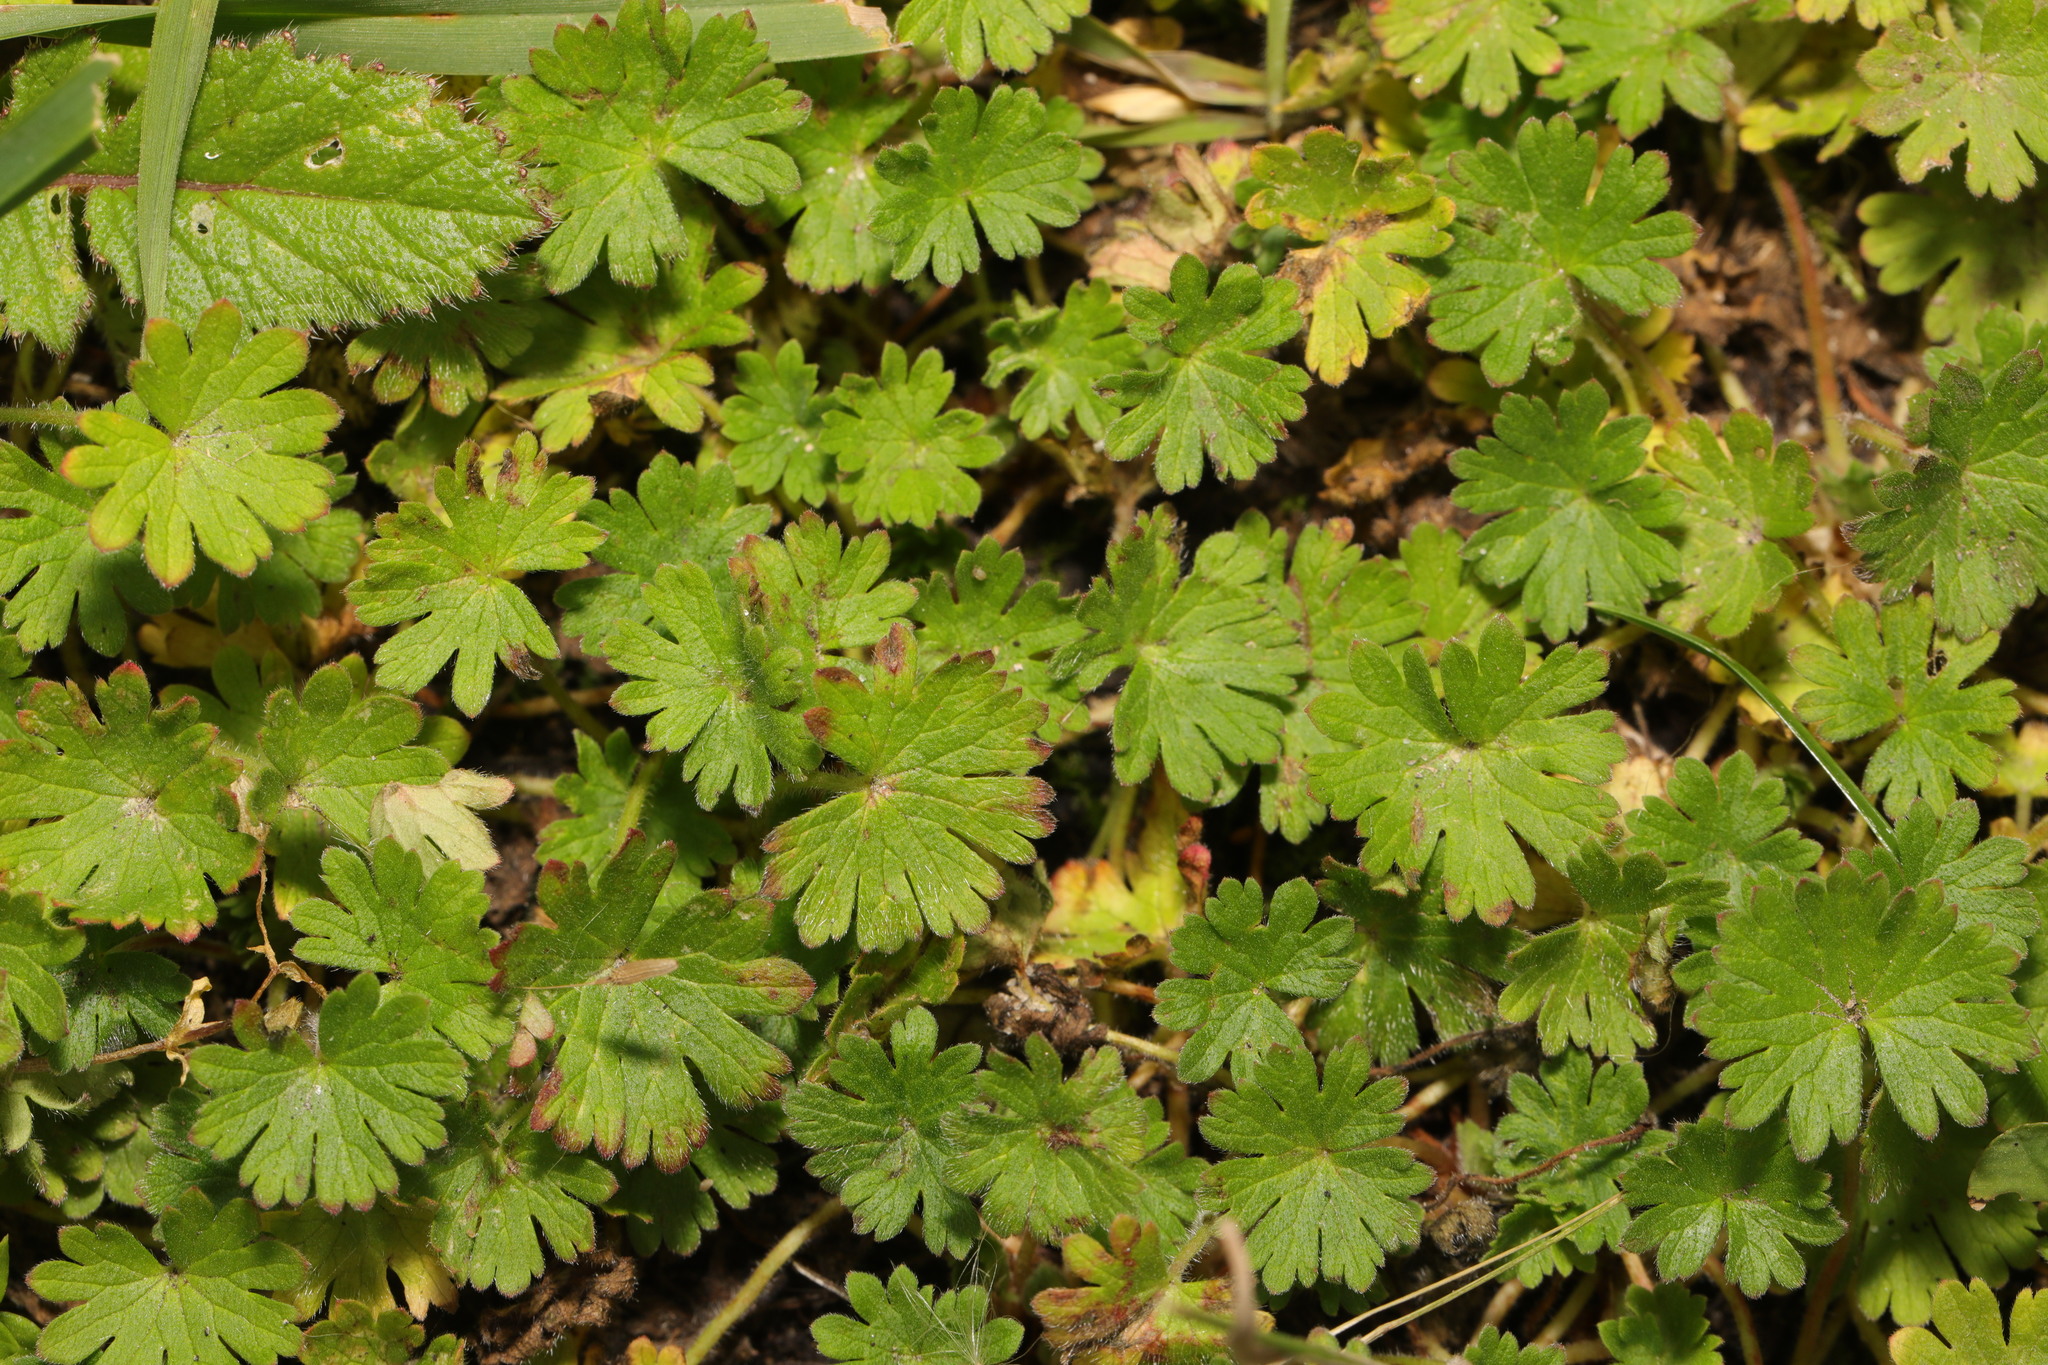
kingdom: Plantae
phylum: Tracheophyta
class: Magnoliopsida
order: Geraniales
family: Geraniaceae
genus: Geranium
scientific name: Geranium molle
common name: Dove's-foot crane's-bill
